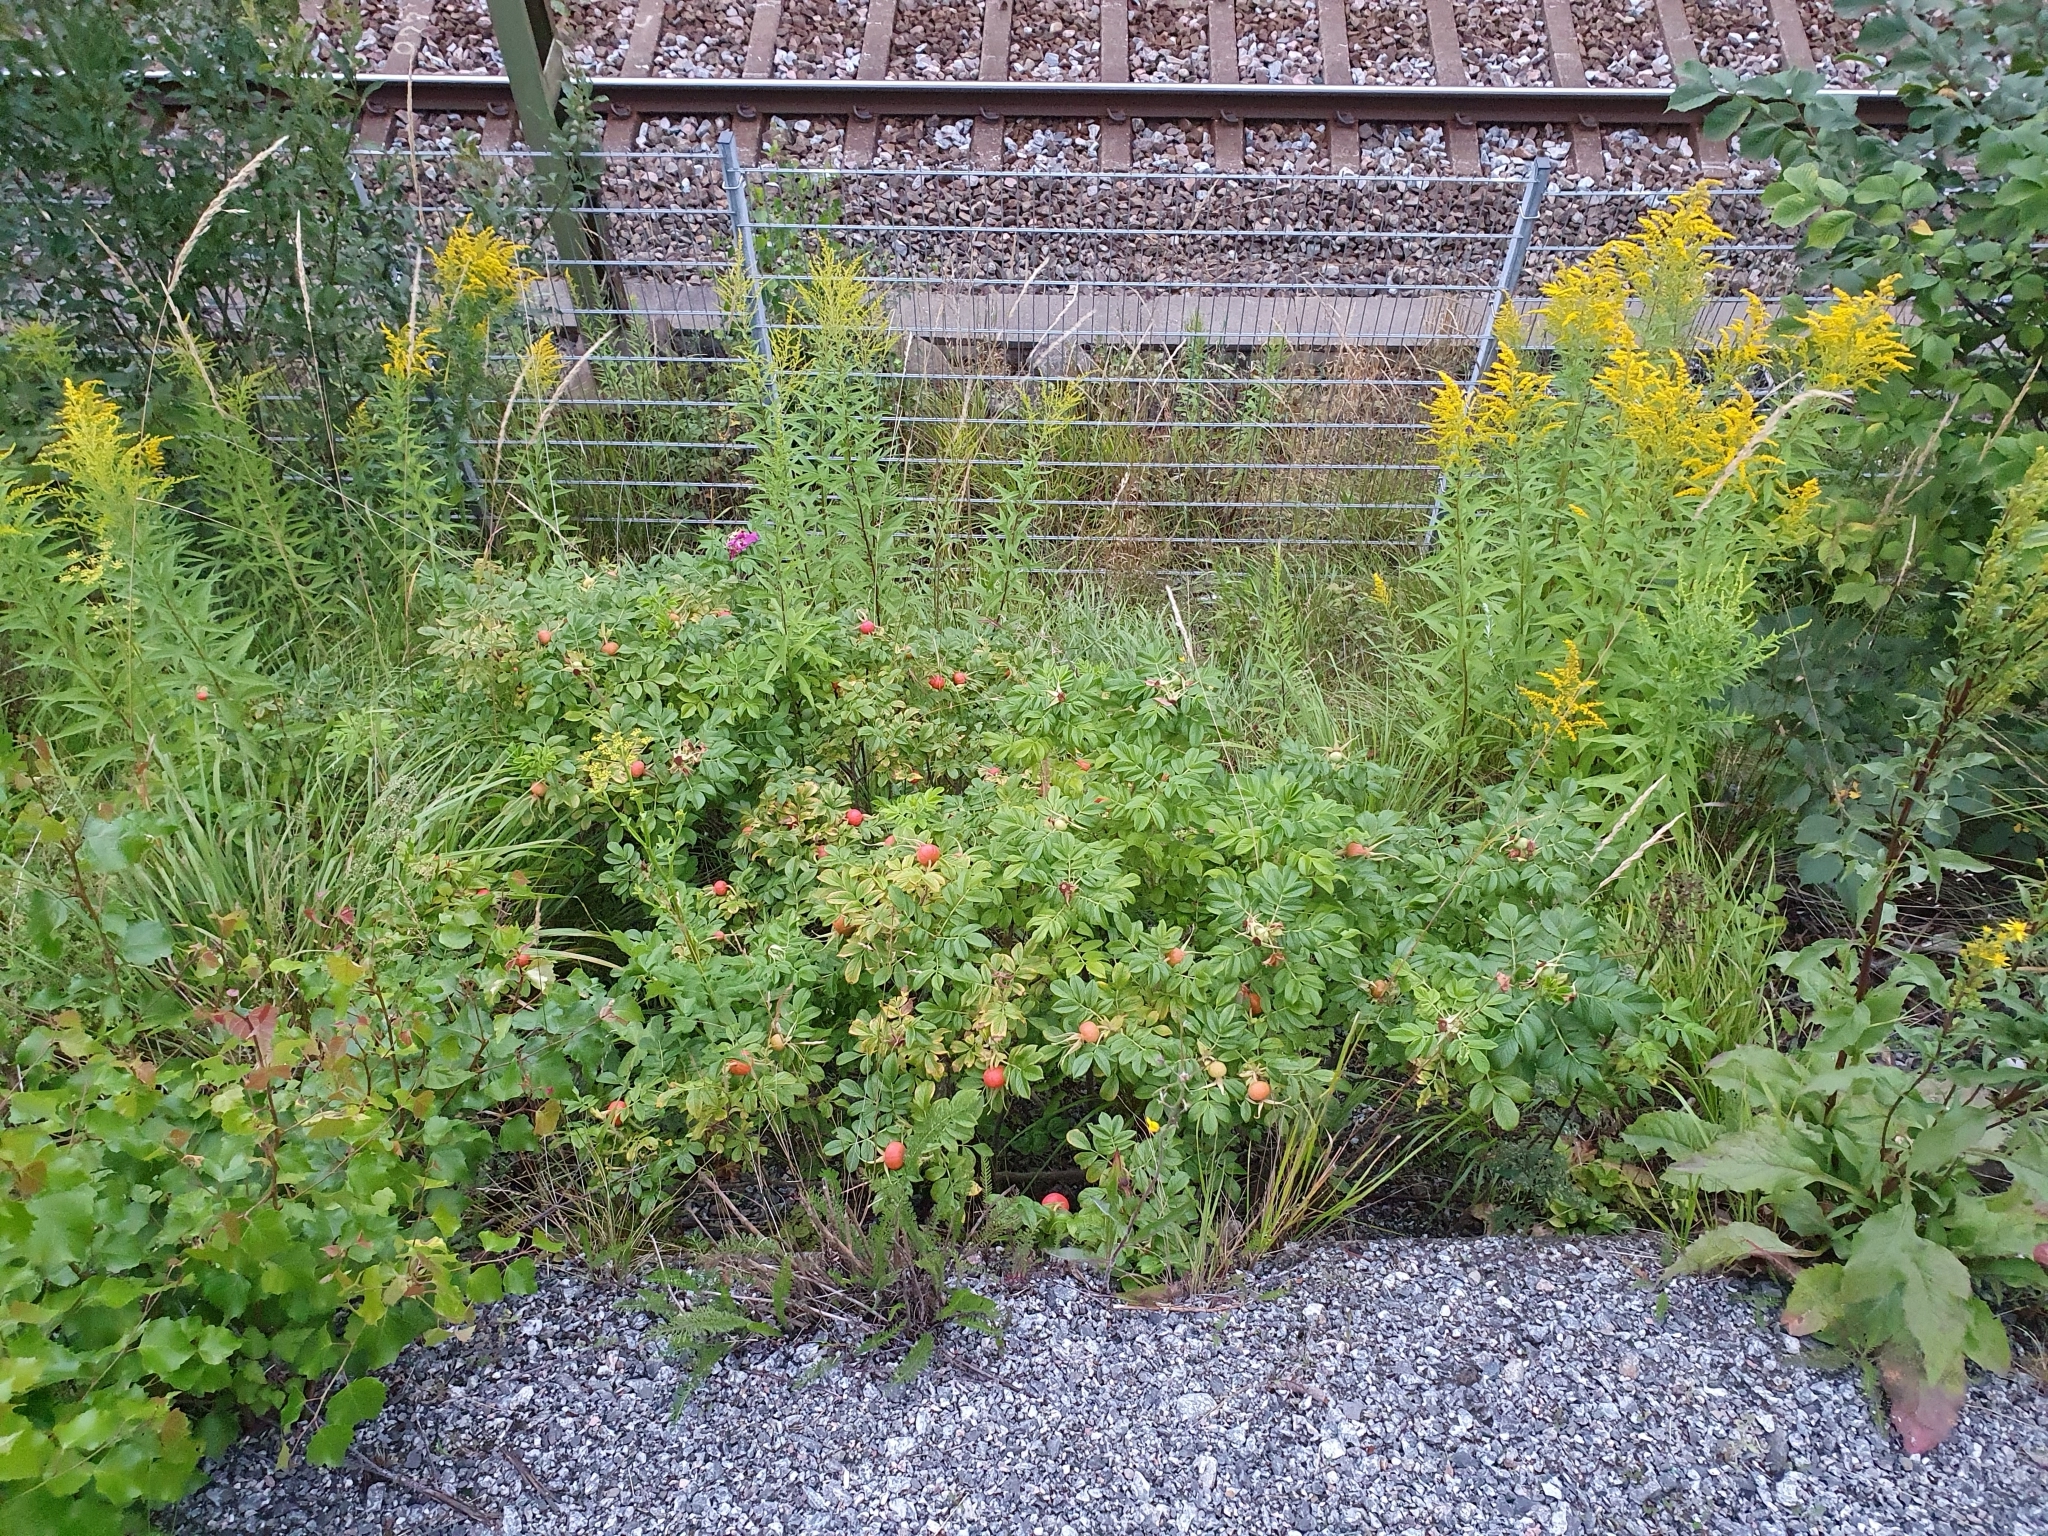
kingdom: Plantae
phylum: Tracheophyta
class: Magnoliopsida
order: Rosales
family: Rosaceae
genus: Rosa
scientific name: Rosa rugosa
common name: Japanese rose
